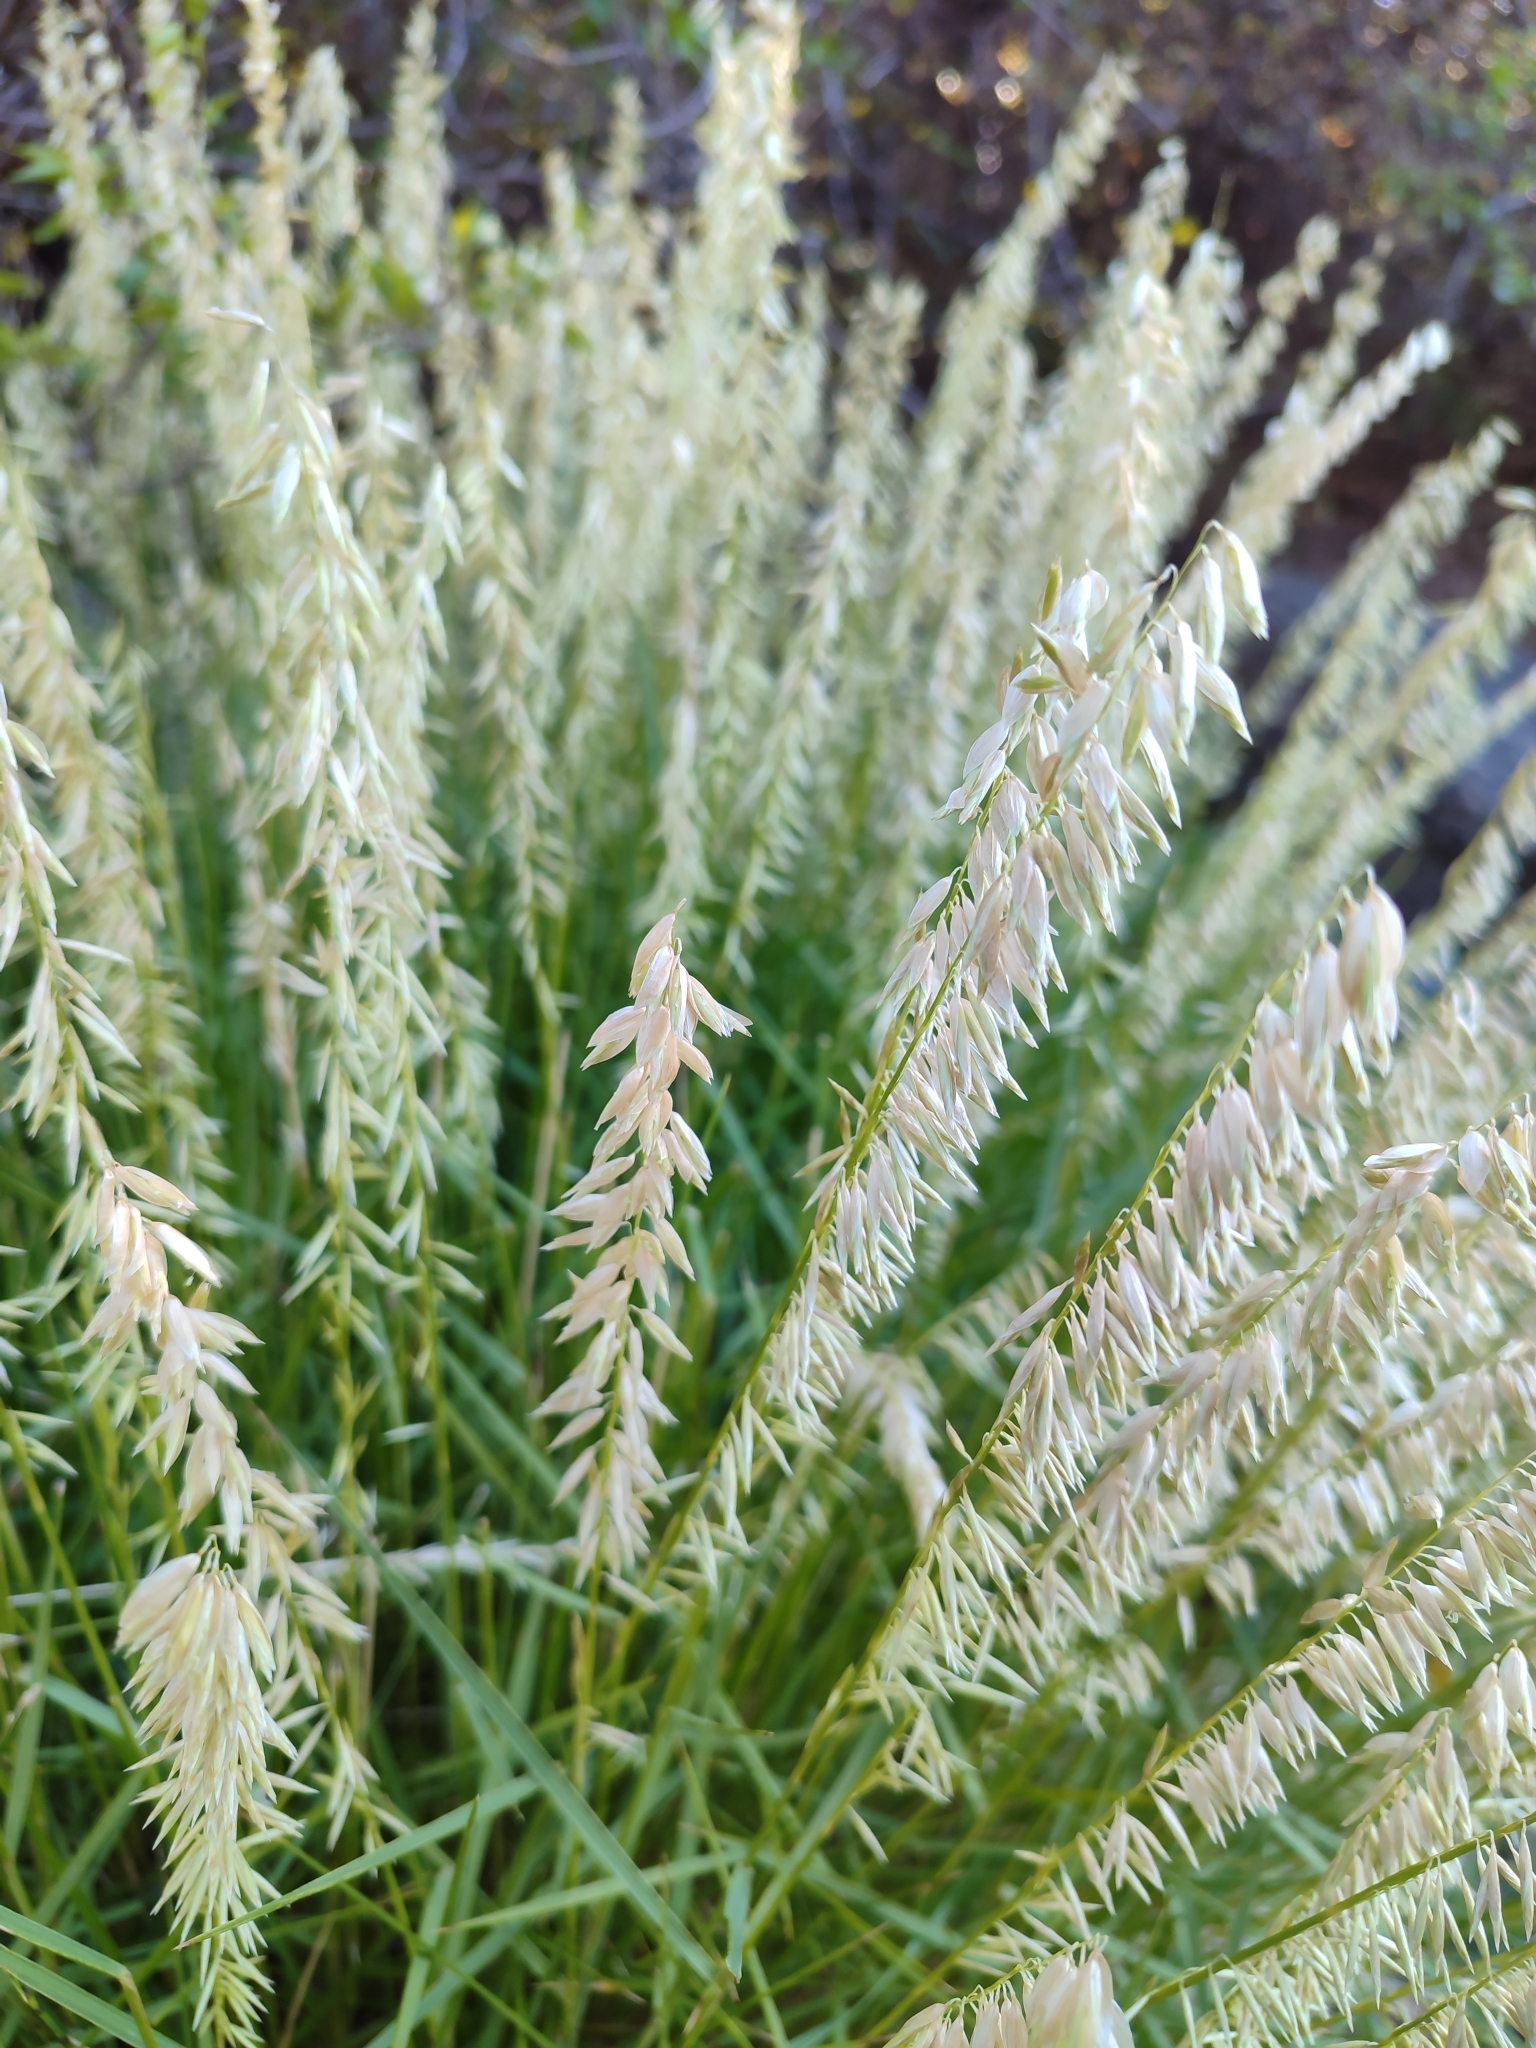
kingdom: Plantae
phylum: Tracheophyta
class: Liliopsida
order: Poales
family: Poaceae
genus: Melica
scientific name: Melica macra
